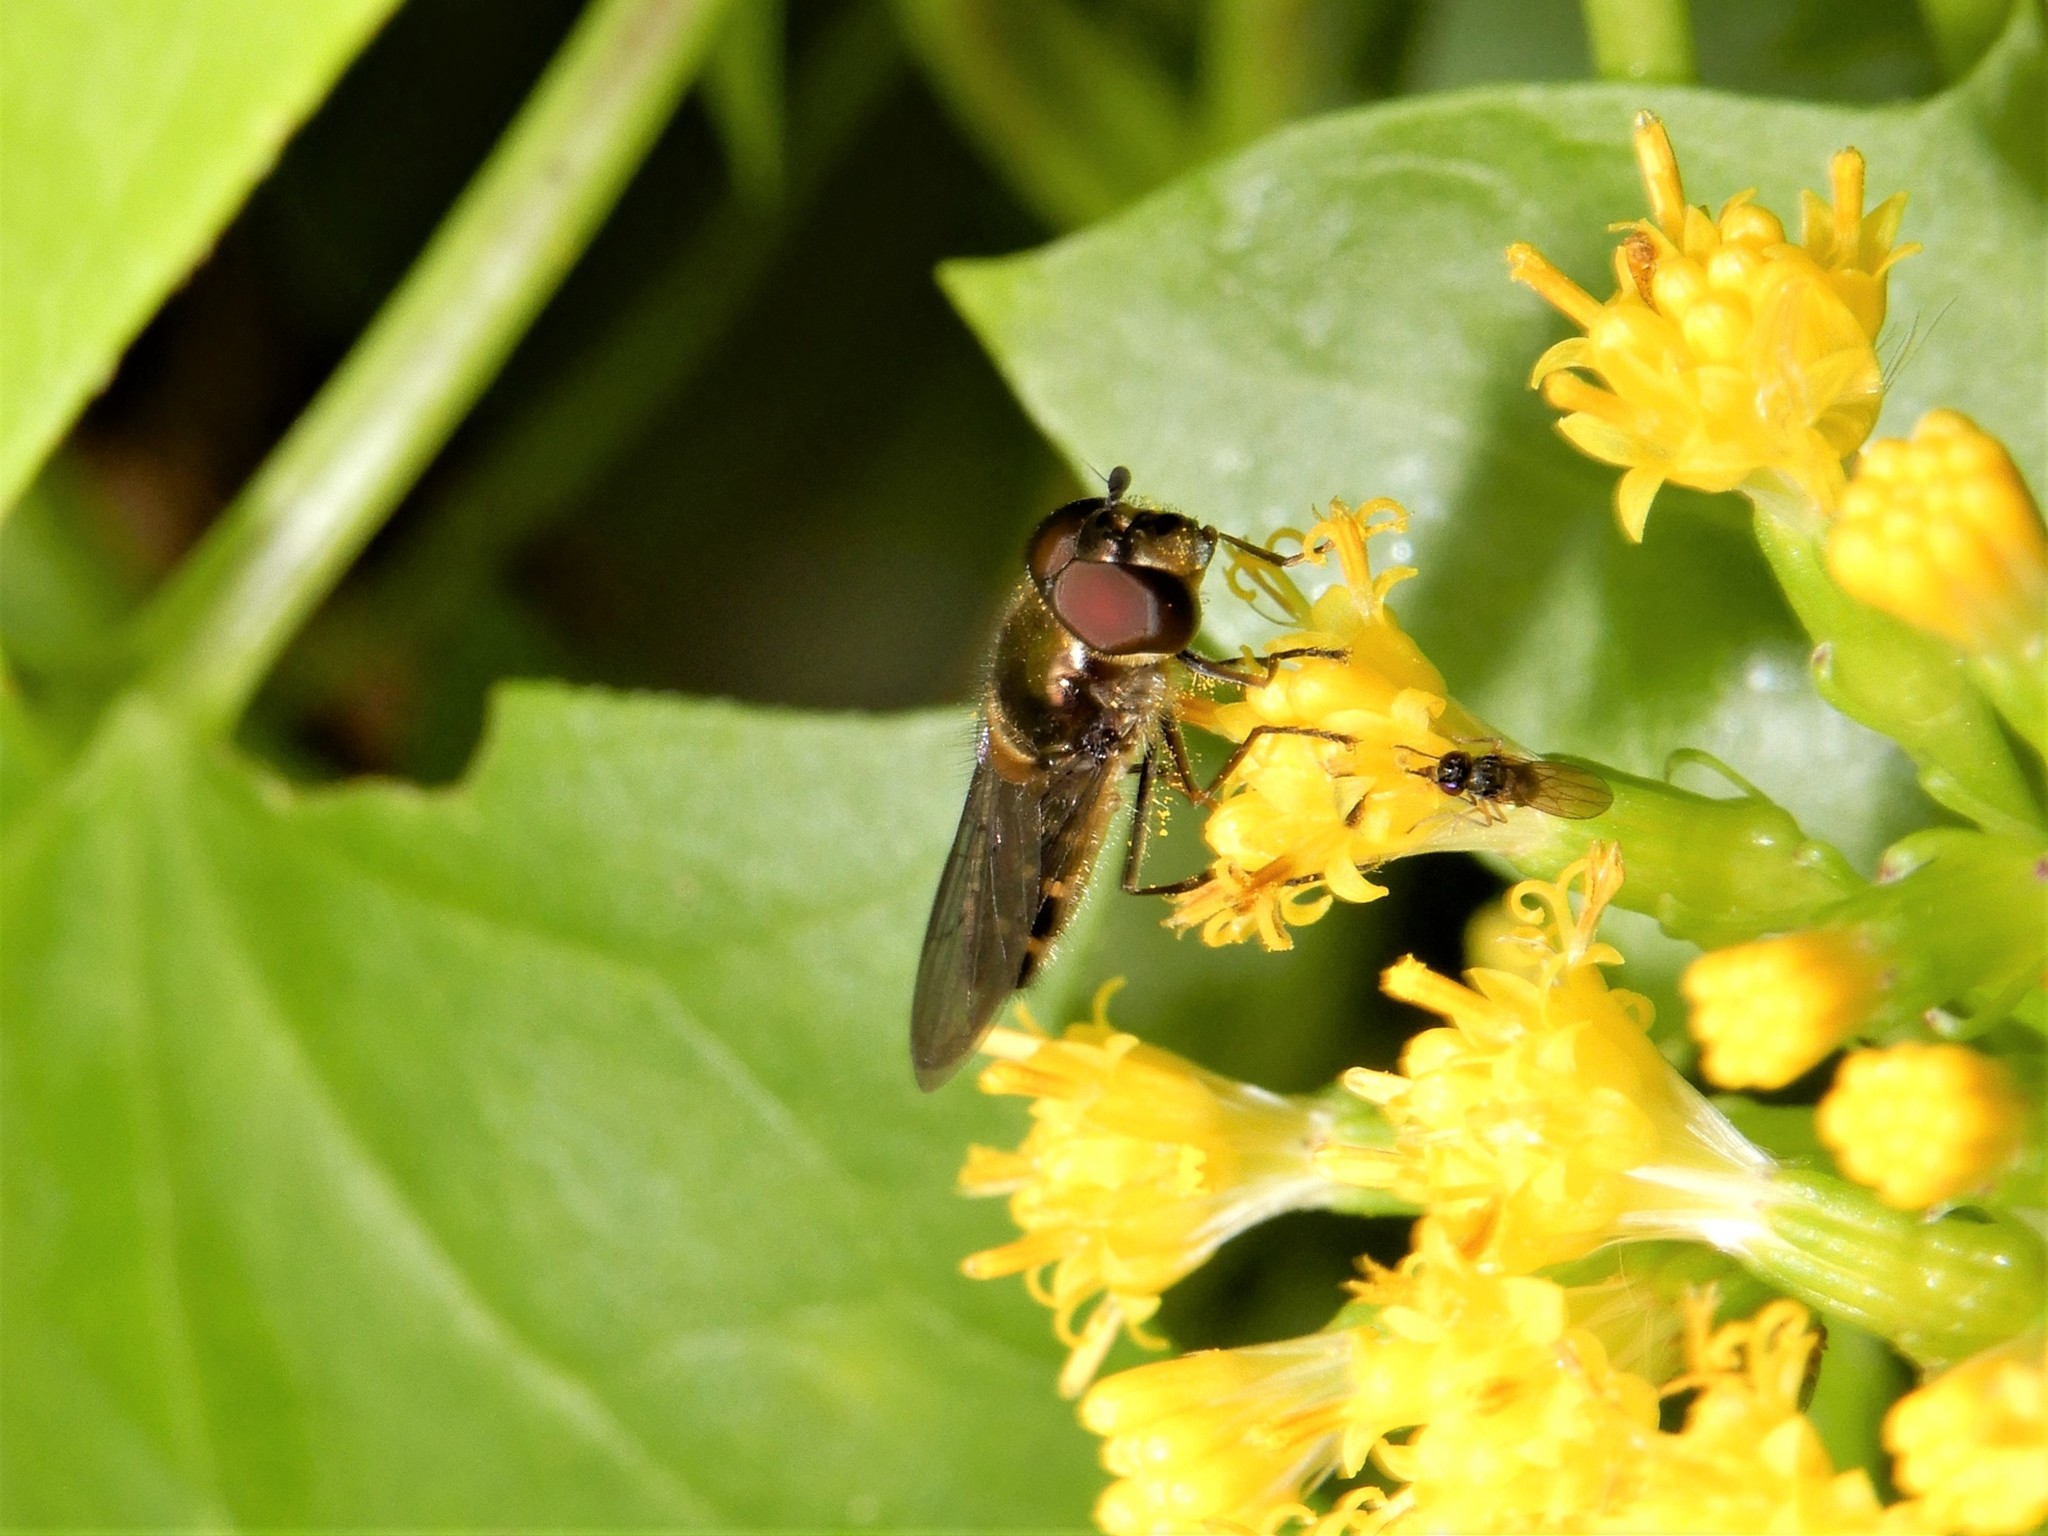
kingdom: Animalia
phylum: Arthropoda
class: Insecta
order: Diptera
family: Syrphidae
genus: Melangyna
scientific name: Melangyna novaezelandiae
